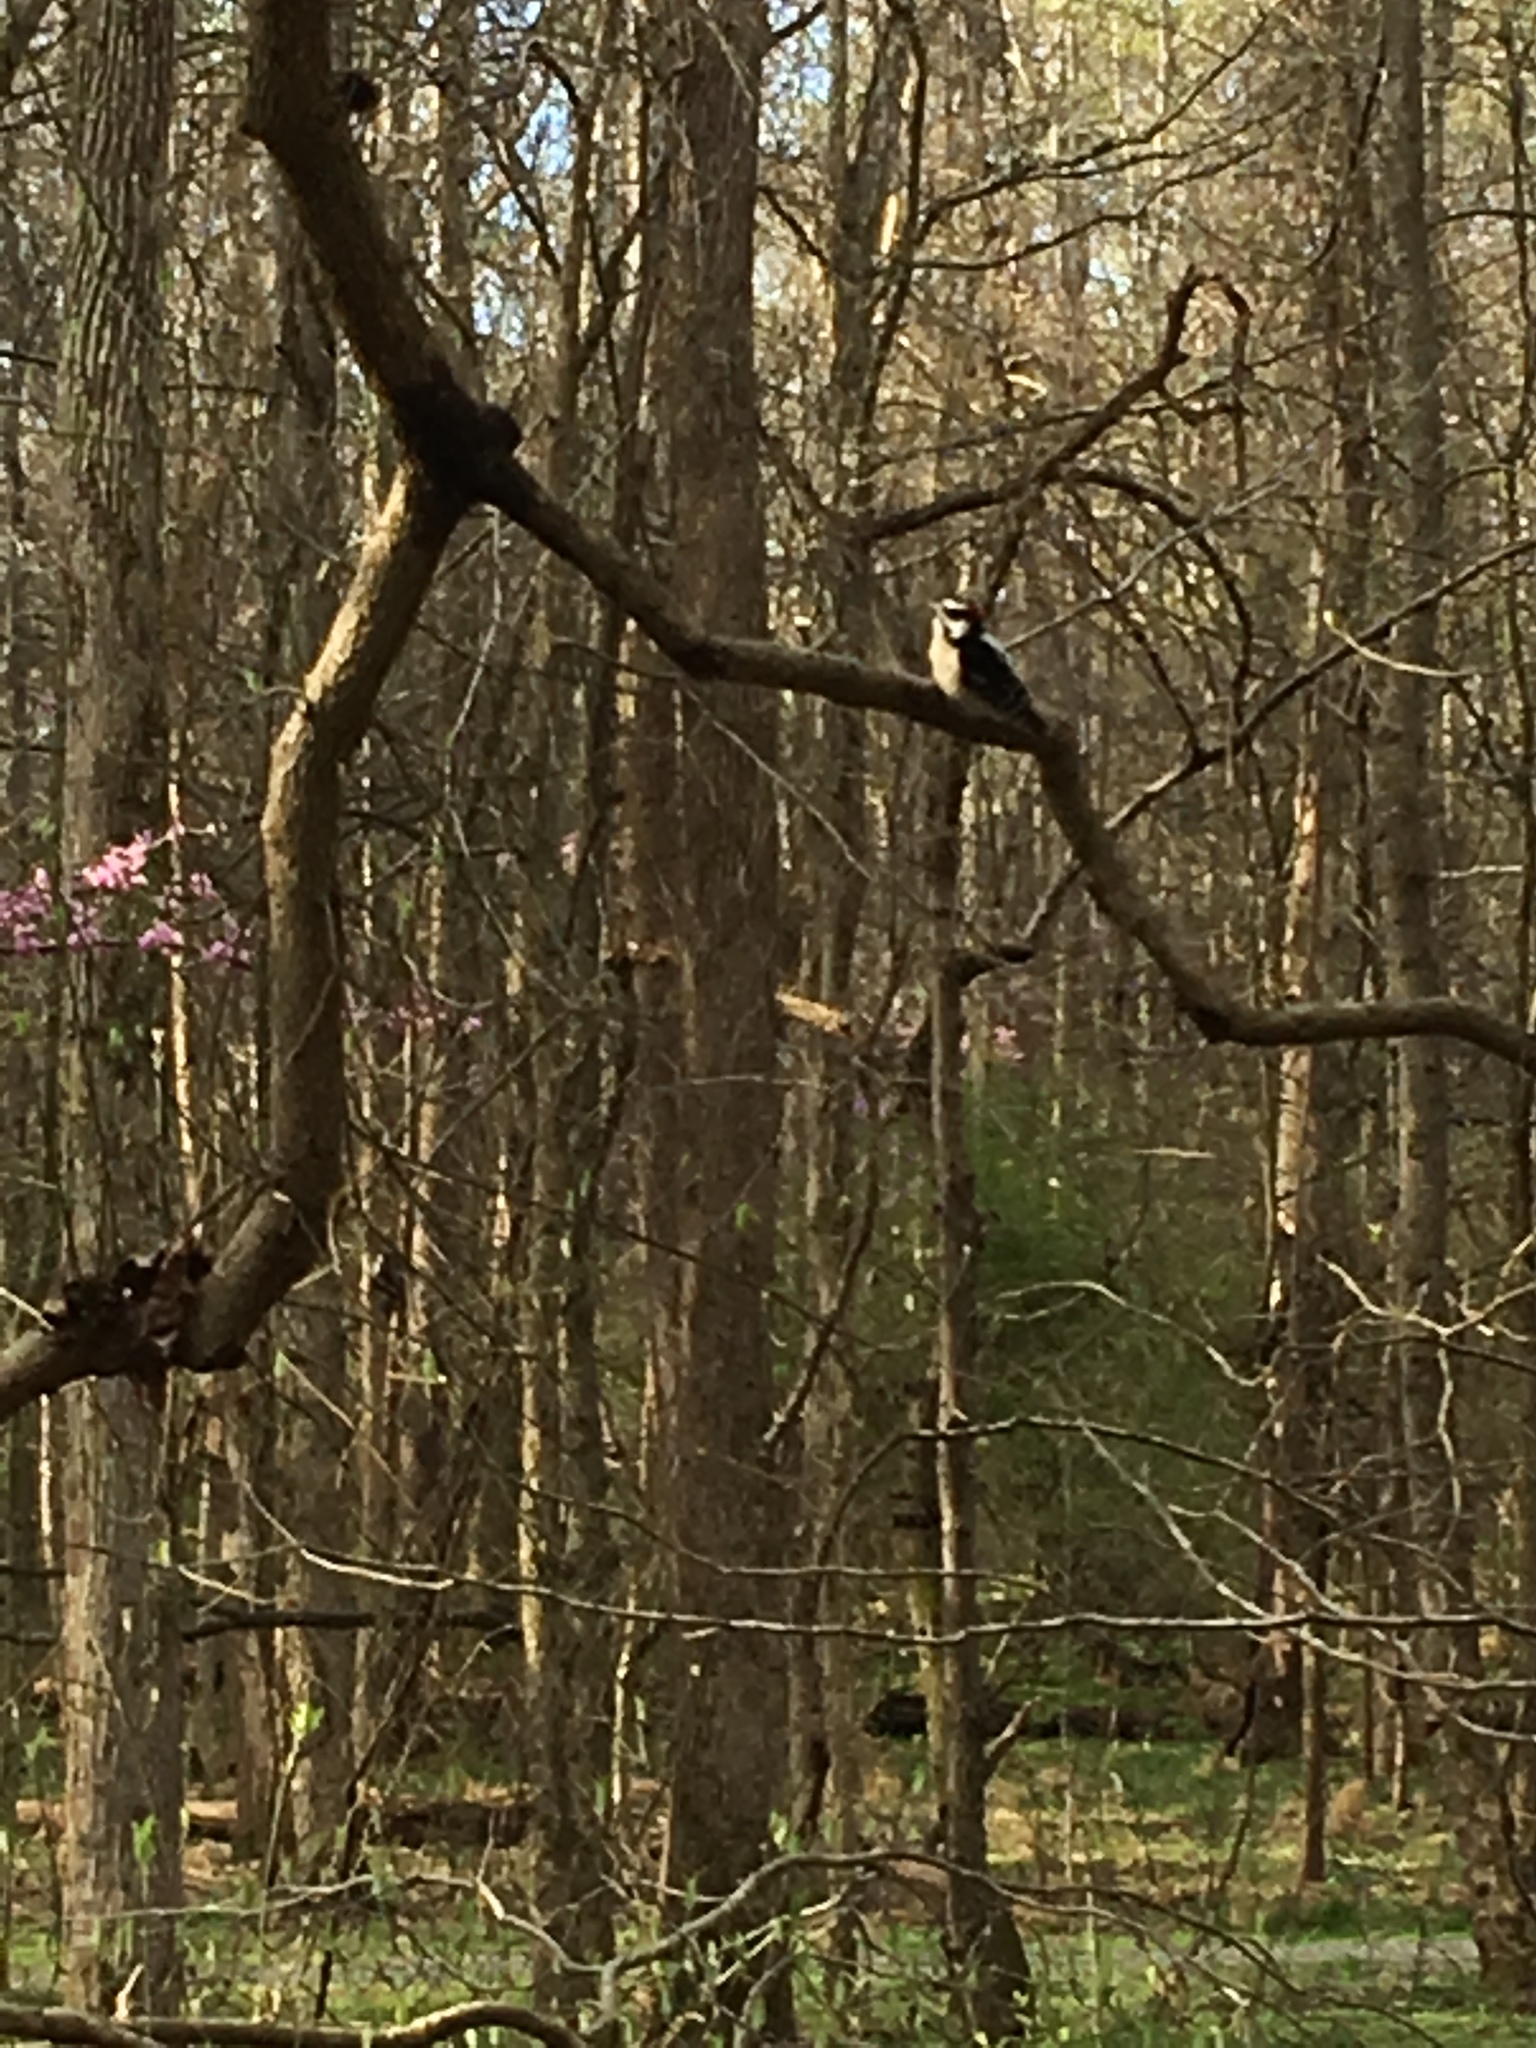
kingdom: Animalia
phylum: Chordata
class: Aves
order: Piciformes
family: Picidae
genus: Dryobates
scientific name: Dryobates pubescens
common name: Downy woodpecker
